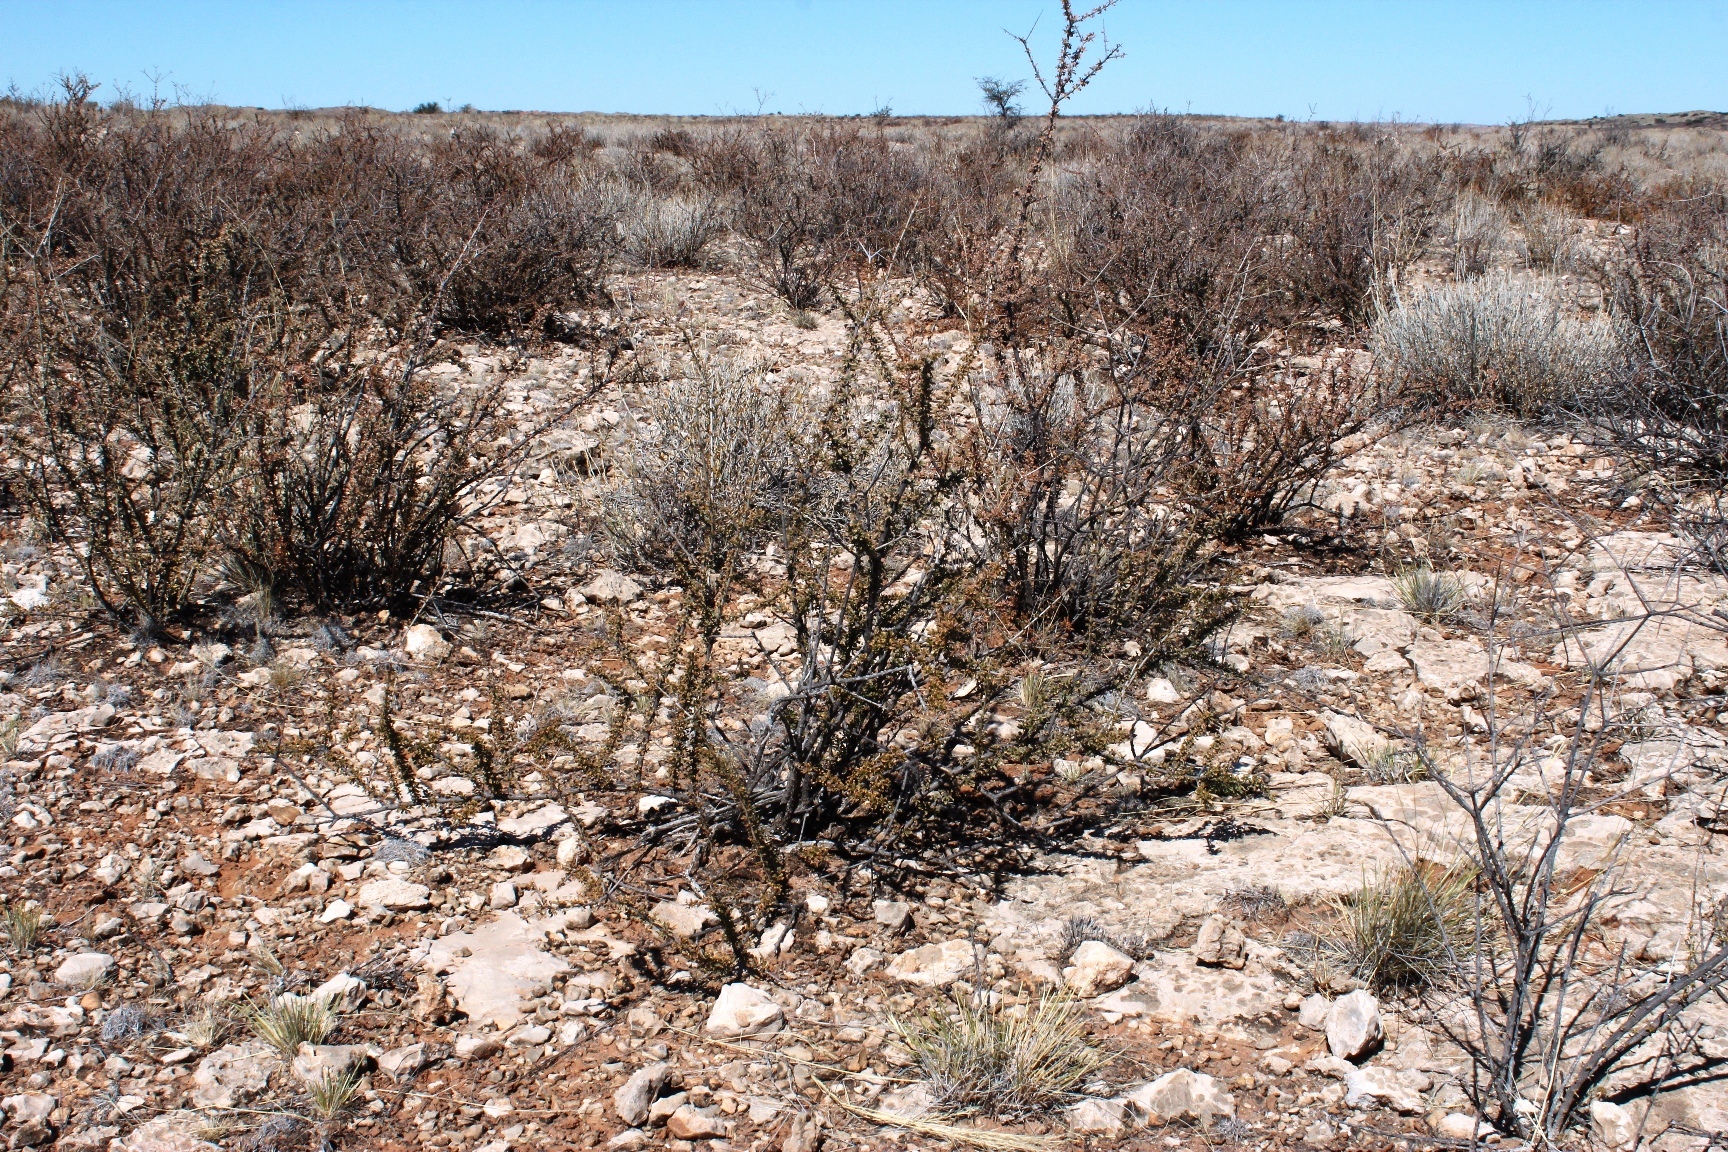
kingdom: Plantae
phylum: Tracheophyta
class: Magnoliopsida
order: Lamiales
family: Bignoniaceae
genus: Rhigozum
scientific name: Rhigozum trichotomum
